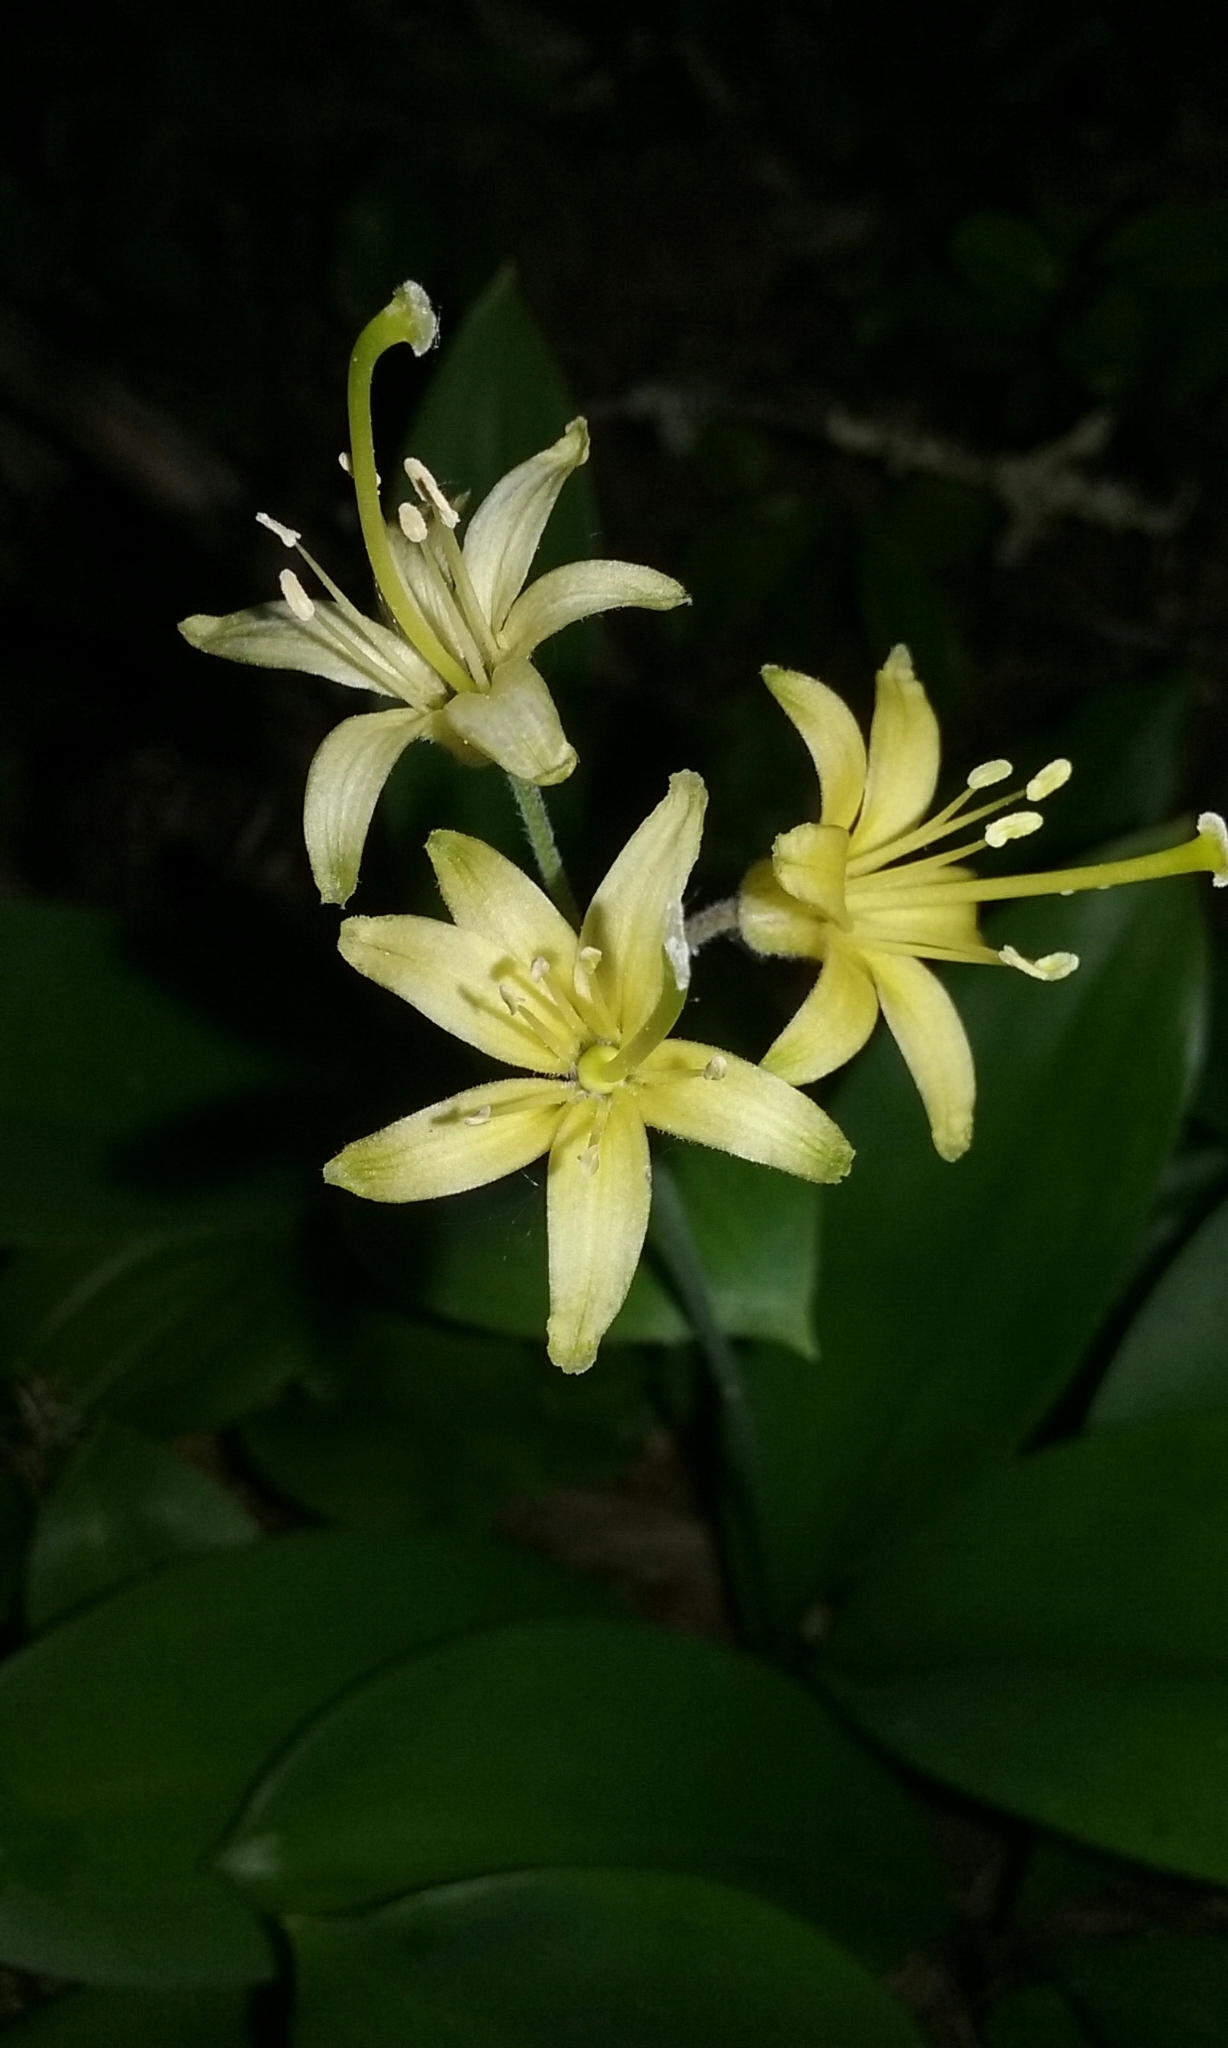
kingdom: Plantae
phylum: Tracheophyta
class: Liliopsida
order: Liliales
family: Liliaceae
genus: Clintonia
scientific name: Clintonia borealis
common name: Yellow clintonia
